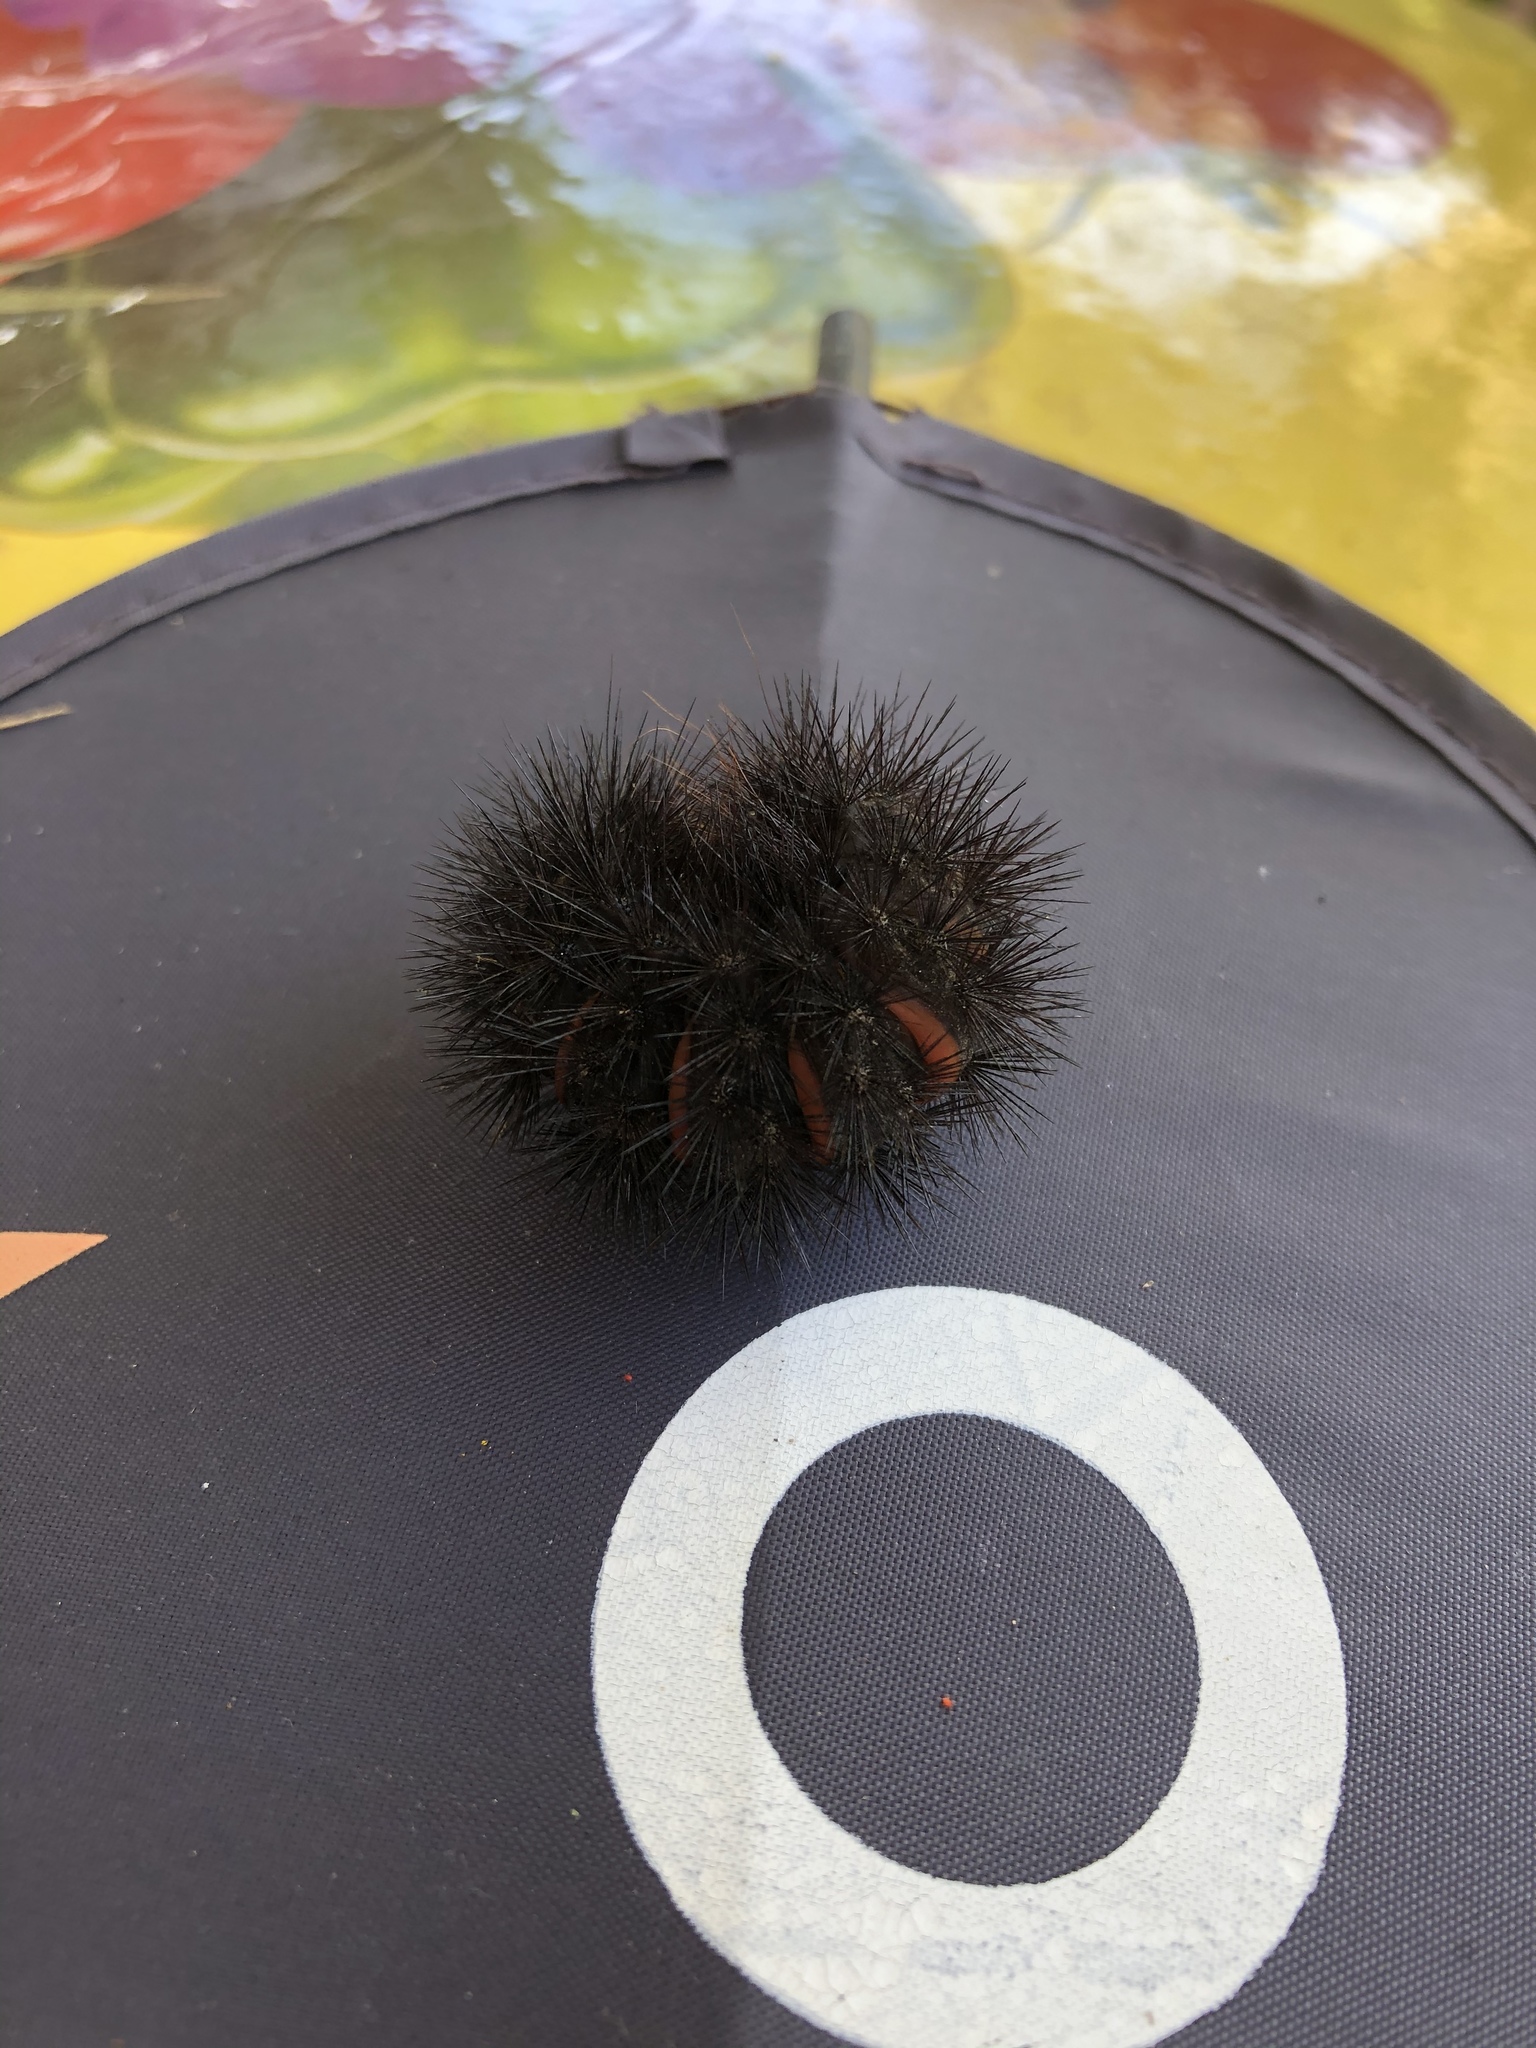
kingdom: Animalia
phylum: Arthropoda
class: Insecta
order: Lepidoptera
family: Erebidae
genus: Hypercompe
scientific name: Hypercompe scribonia
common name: Giant leopard moth
